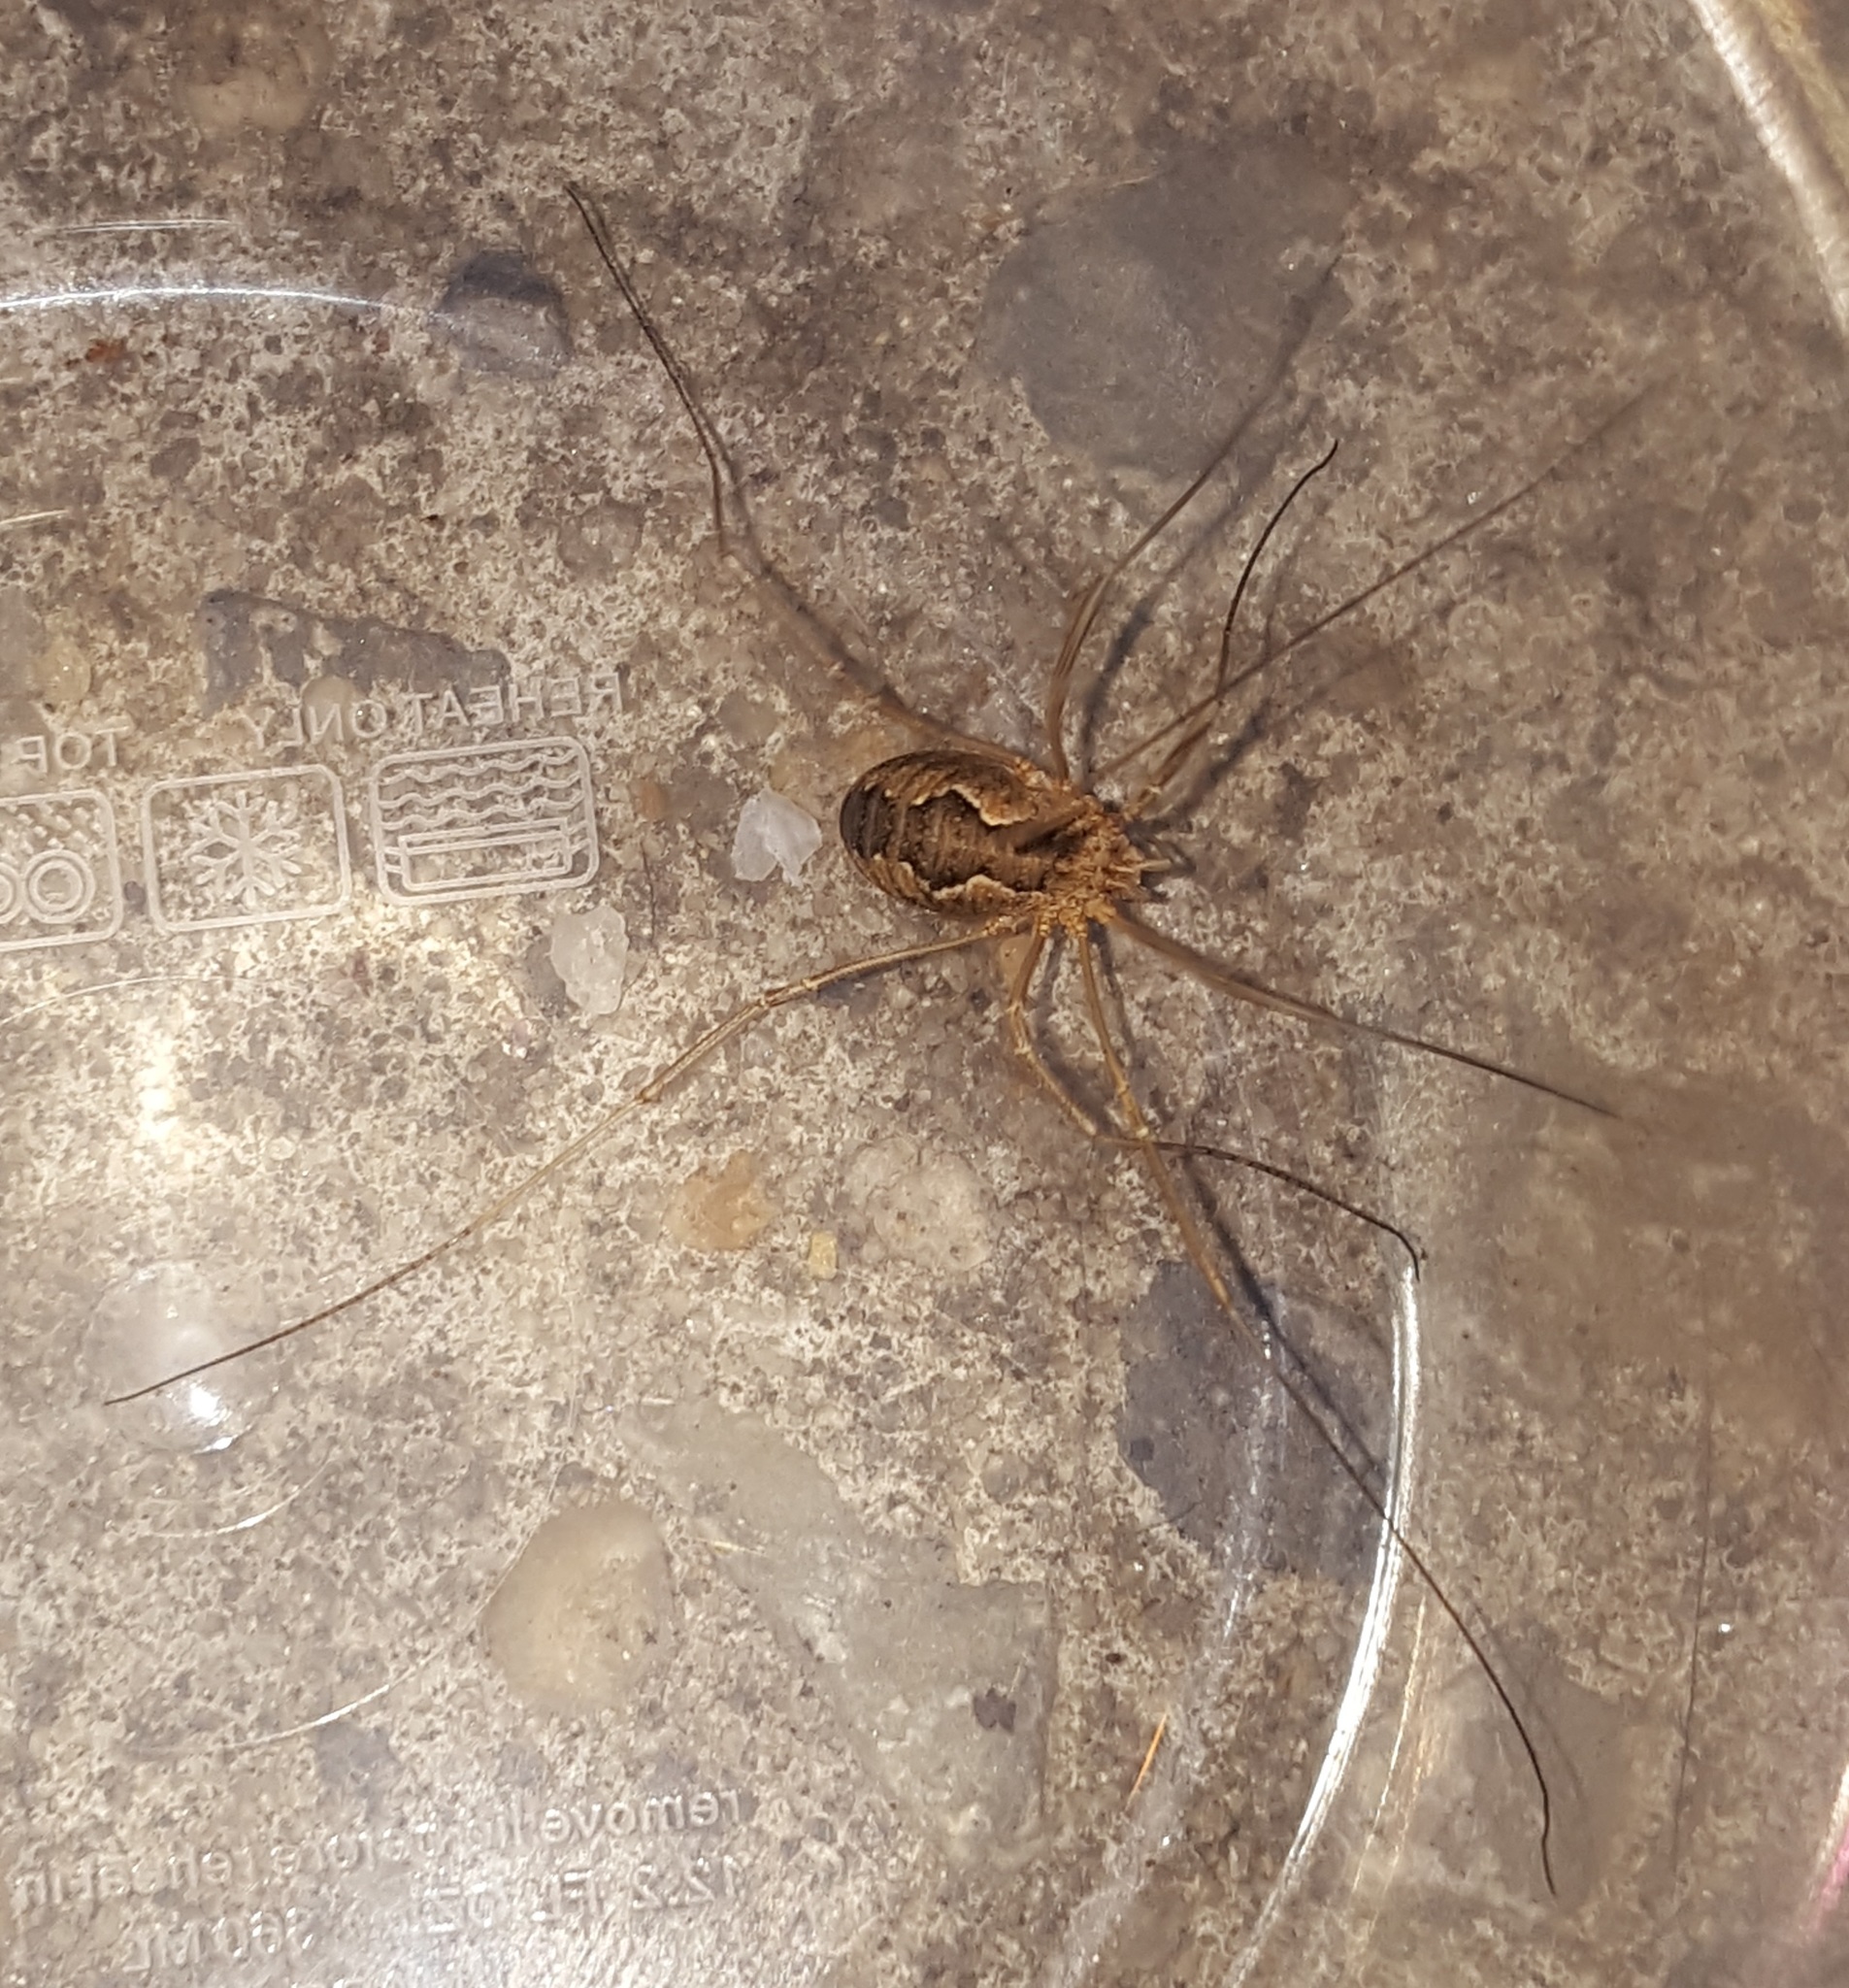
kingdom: Animalia
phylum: Arthropoda
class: Arachnida
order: Opiliones
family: Phalangiidae
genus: Phalangium
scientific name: Phalangium opilio
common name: Daddy longleg
